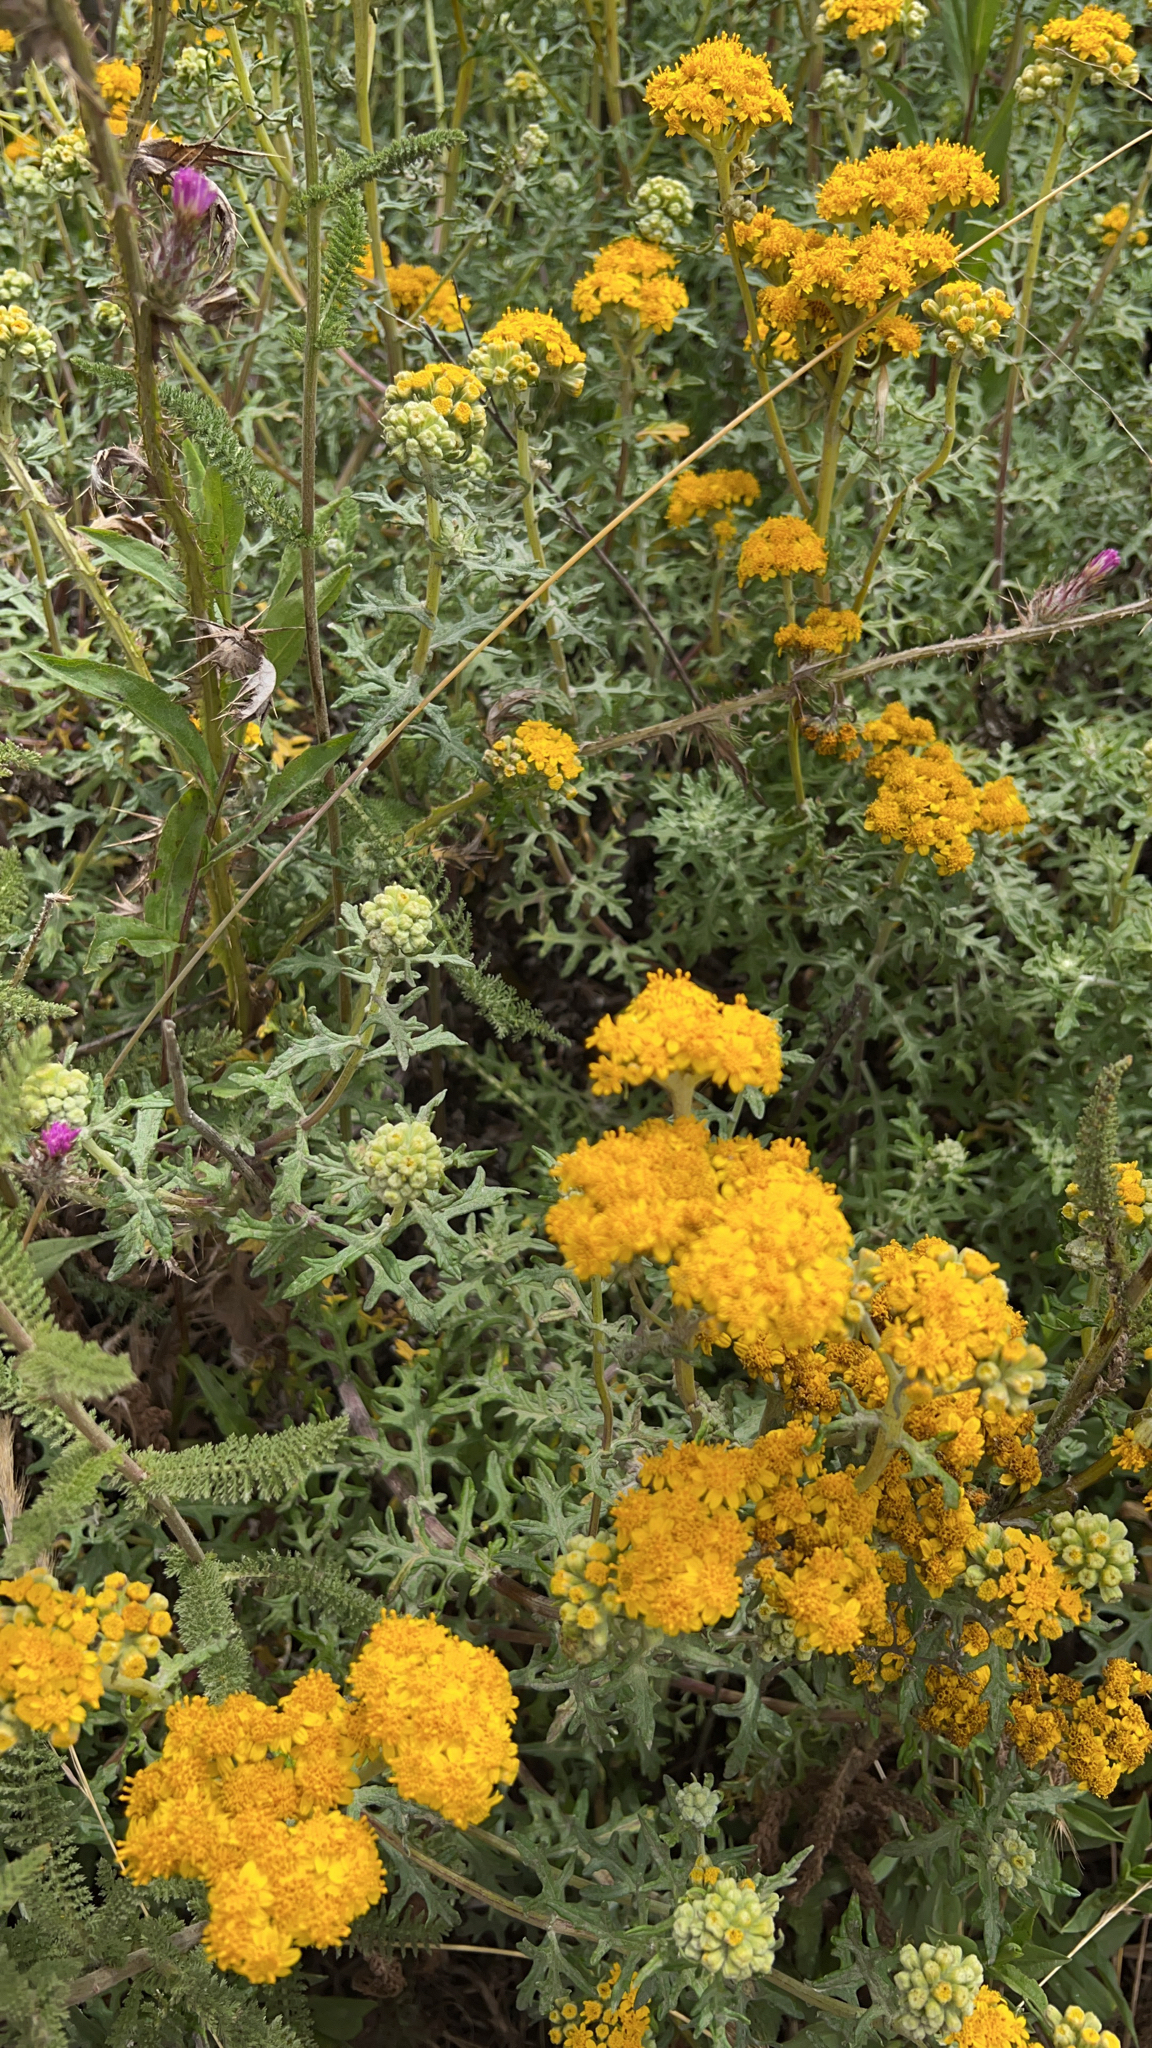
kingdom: Plantae
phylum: Tracheophyta
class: Magnoliopsida
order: Asterales
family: Asteraceae
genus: Eriophyllum
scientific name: Eriophyllum staechadifolium
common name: Lizardtail
